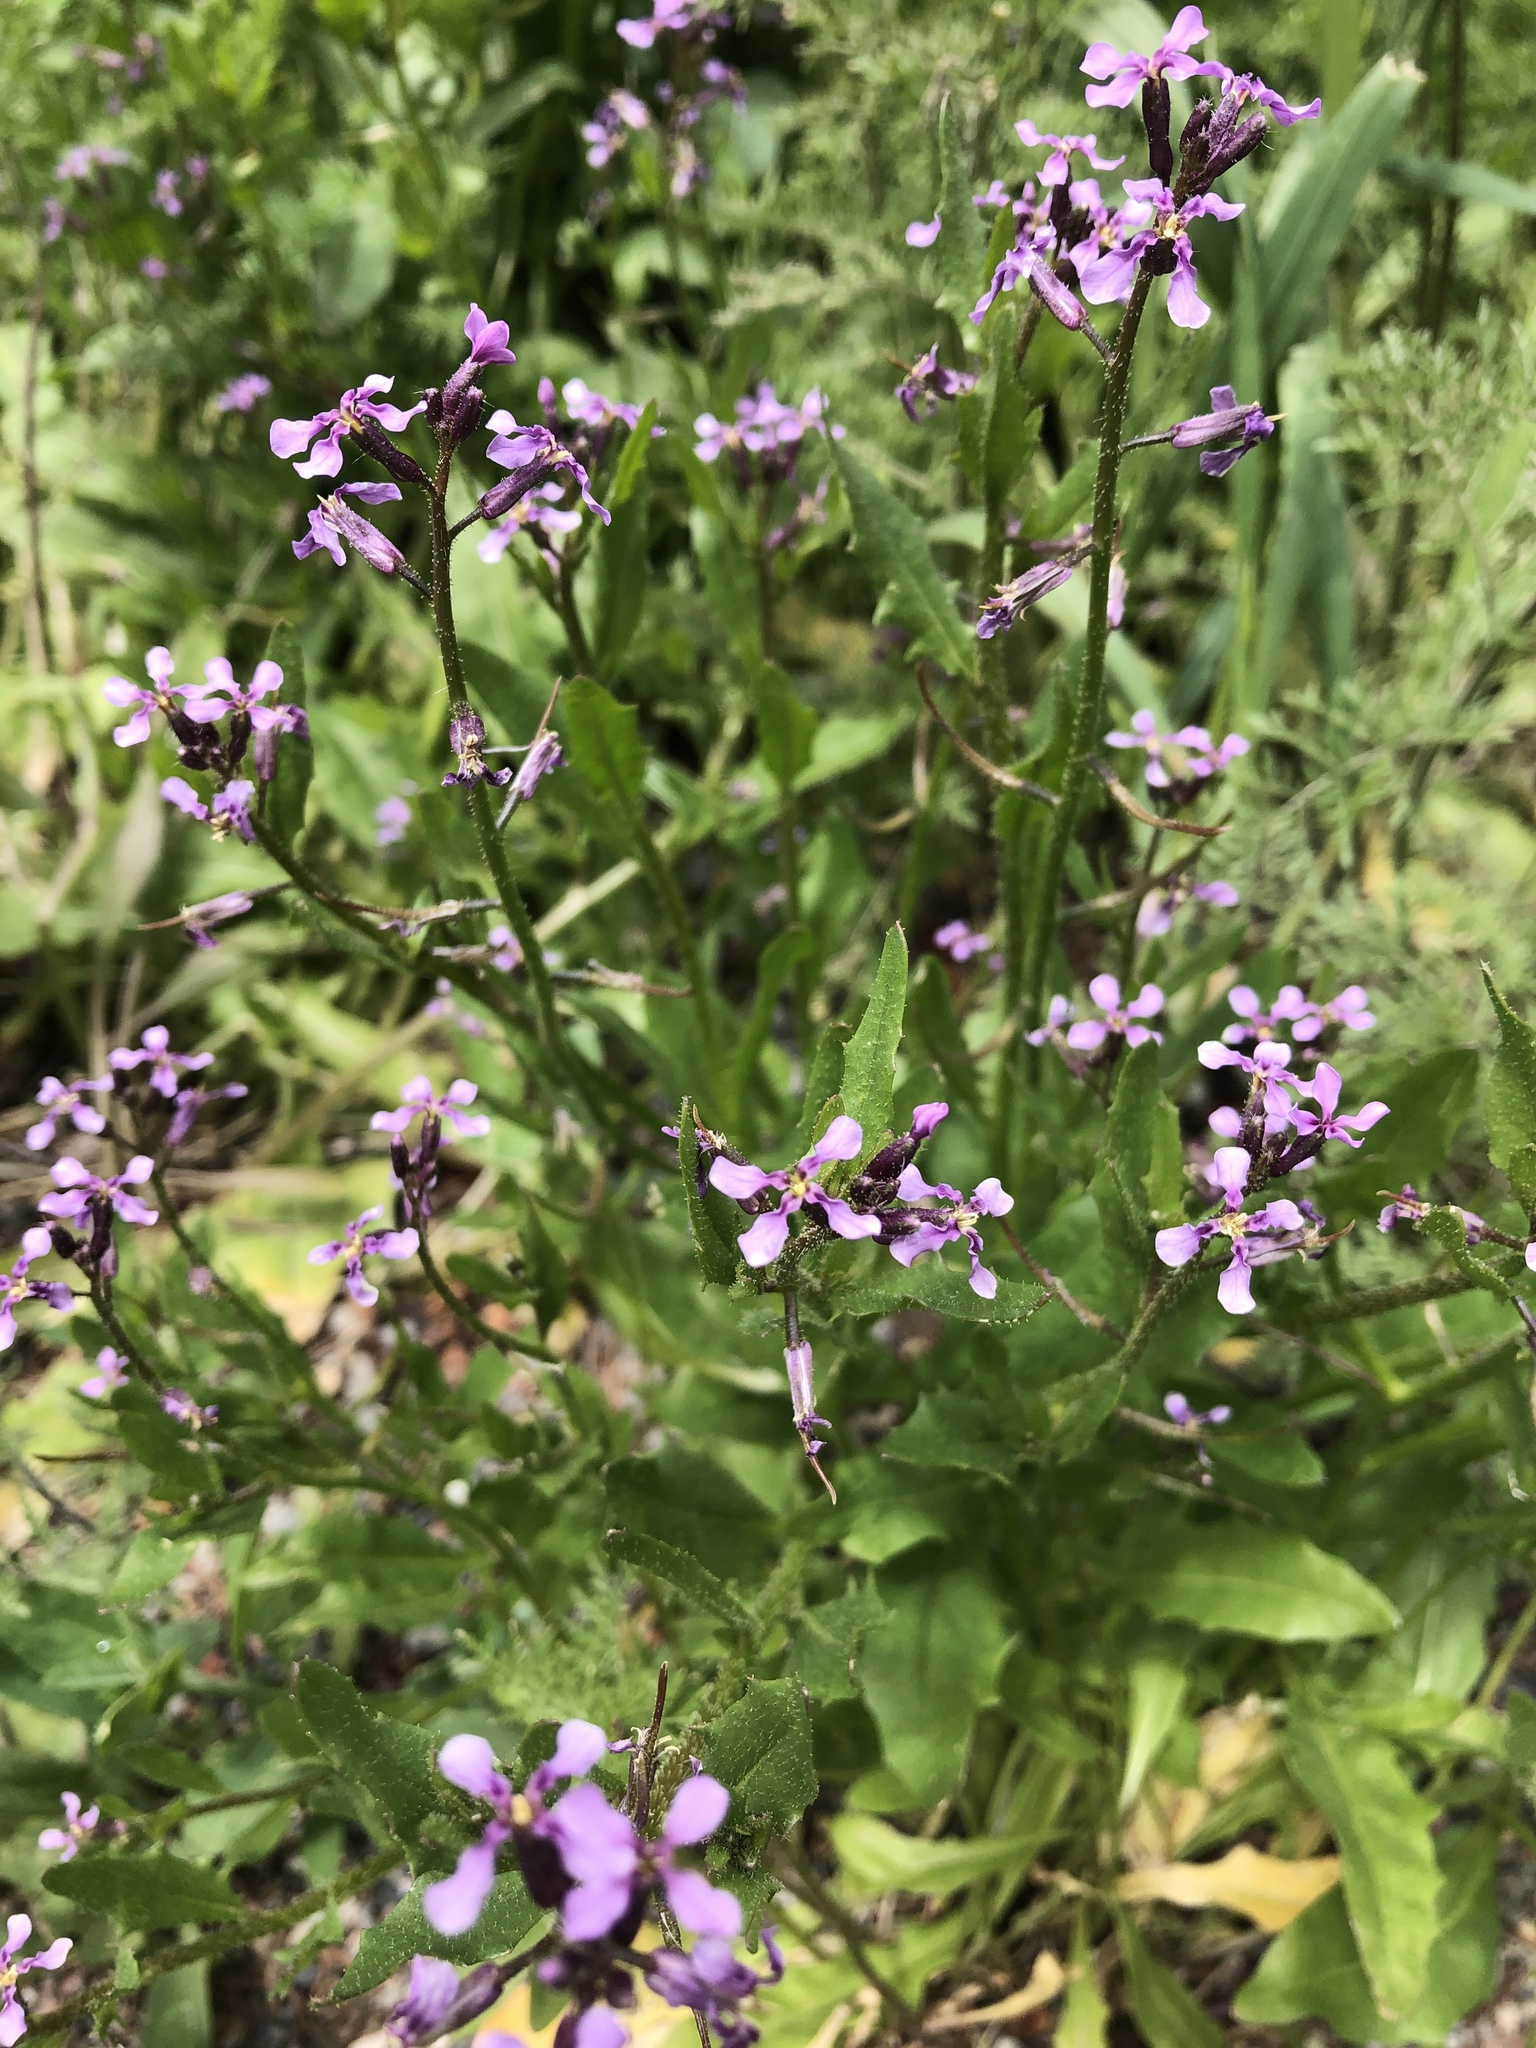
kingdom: Plantae
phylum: Tracheophyta
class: Magnoliopsida
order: Brassicales
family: Brassicaceae
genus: Chorispora
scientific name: Chorispora tenella
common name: Crossflower
